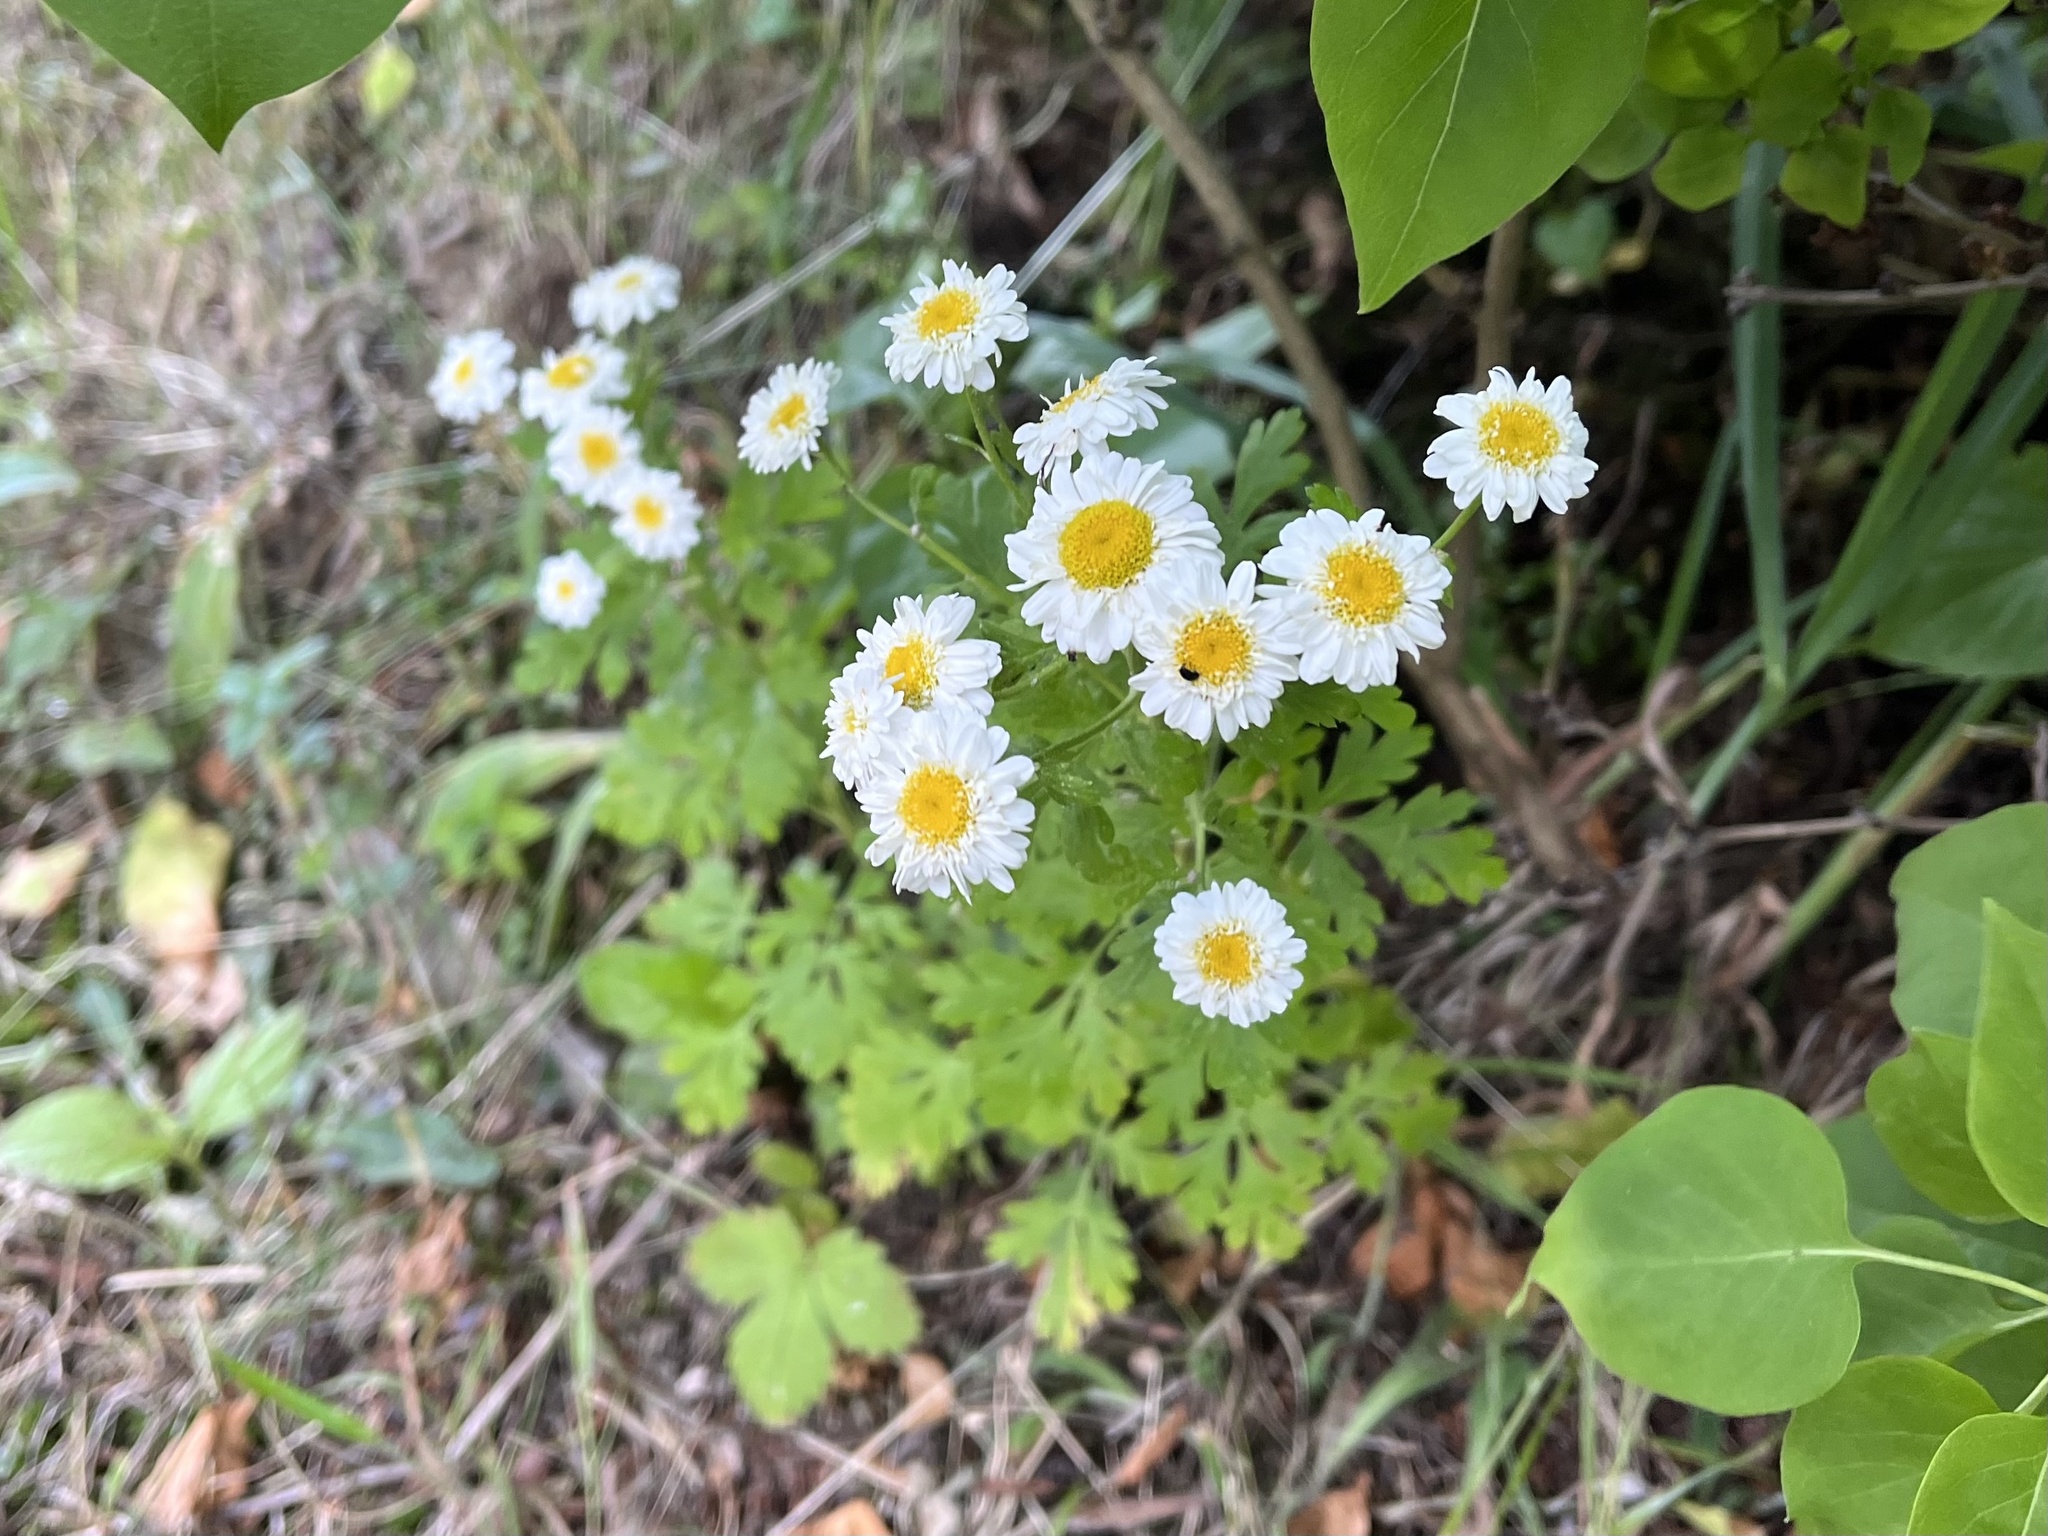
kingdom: Plantae
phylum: Tracheophyta
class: Magnoliopsida
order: Asterales
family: Asteraceae
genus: Tanacetum
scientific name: Tanacetum parthenium
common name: Feverfew
